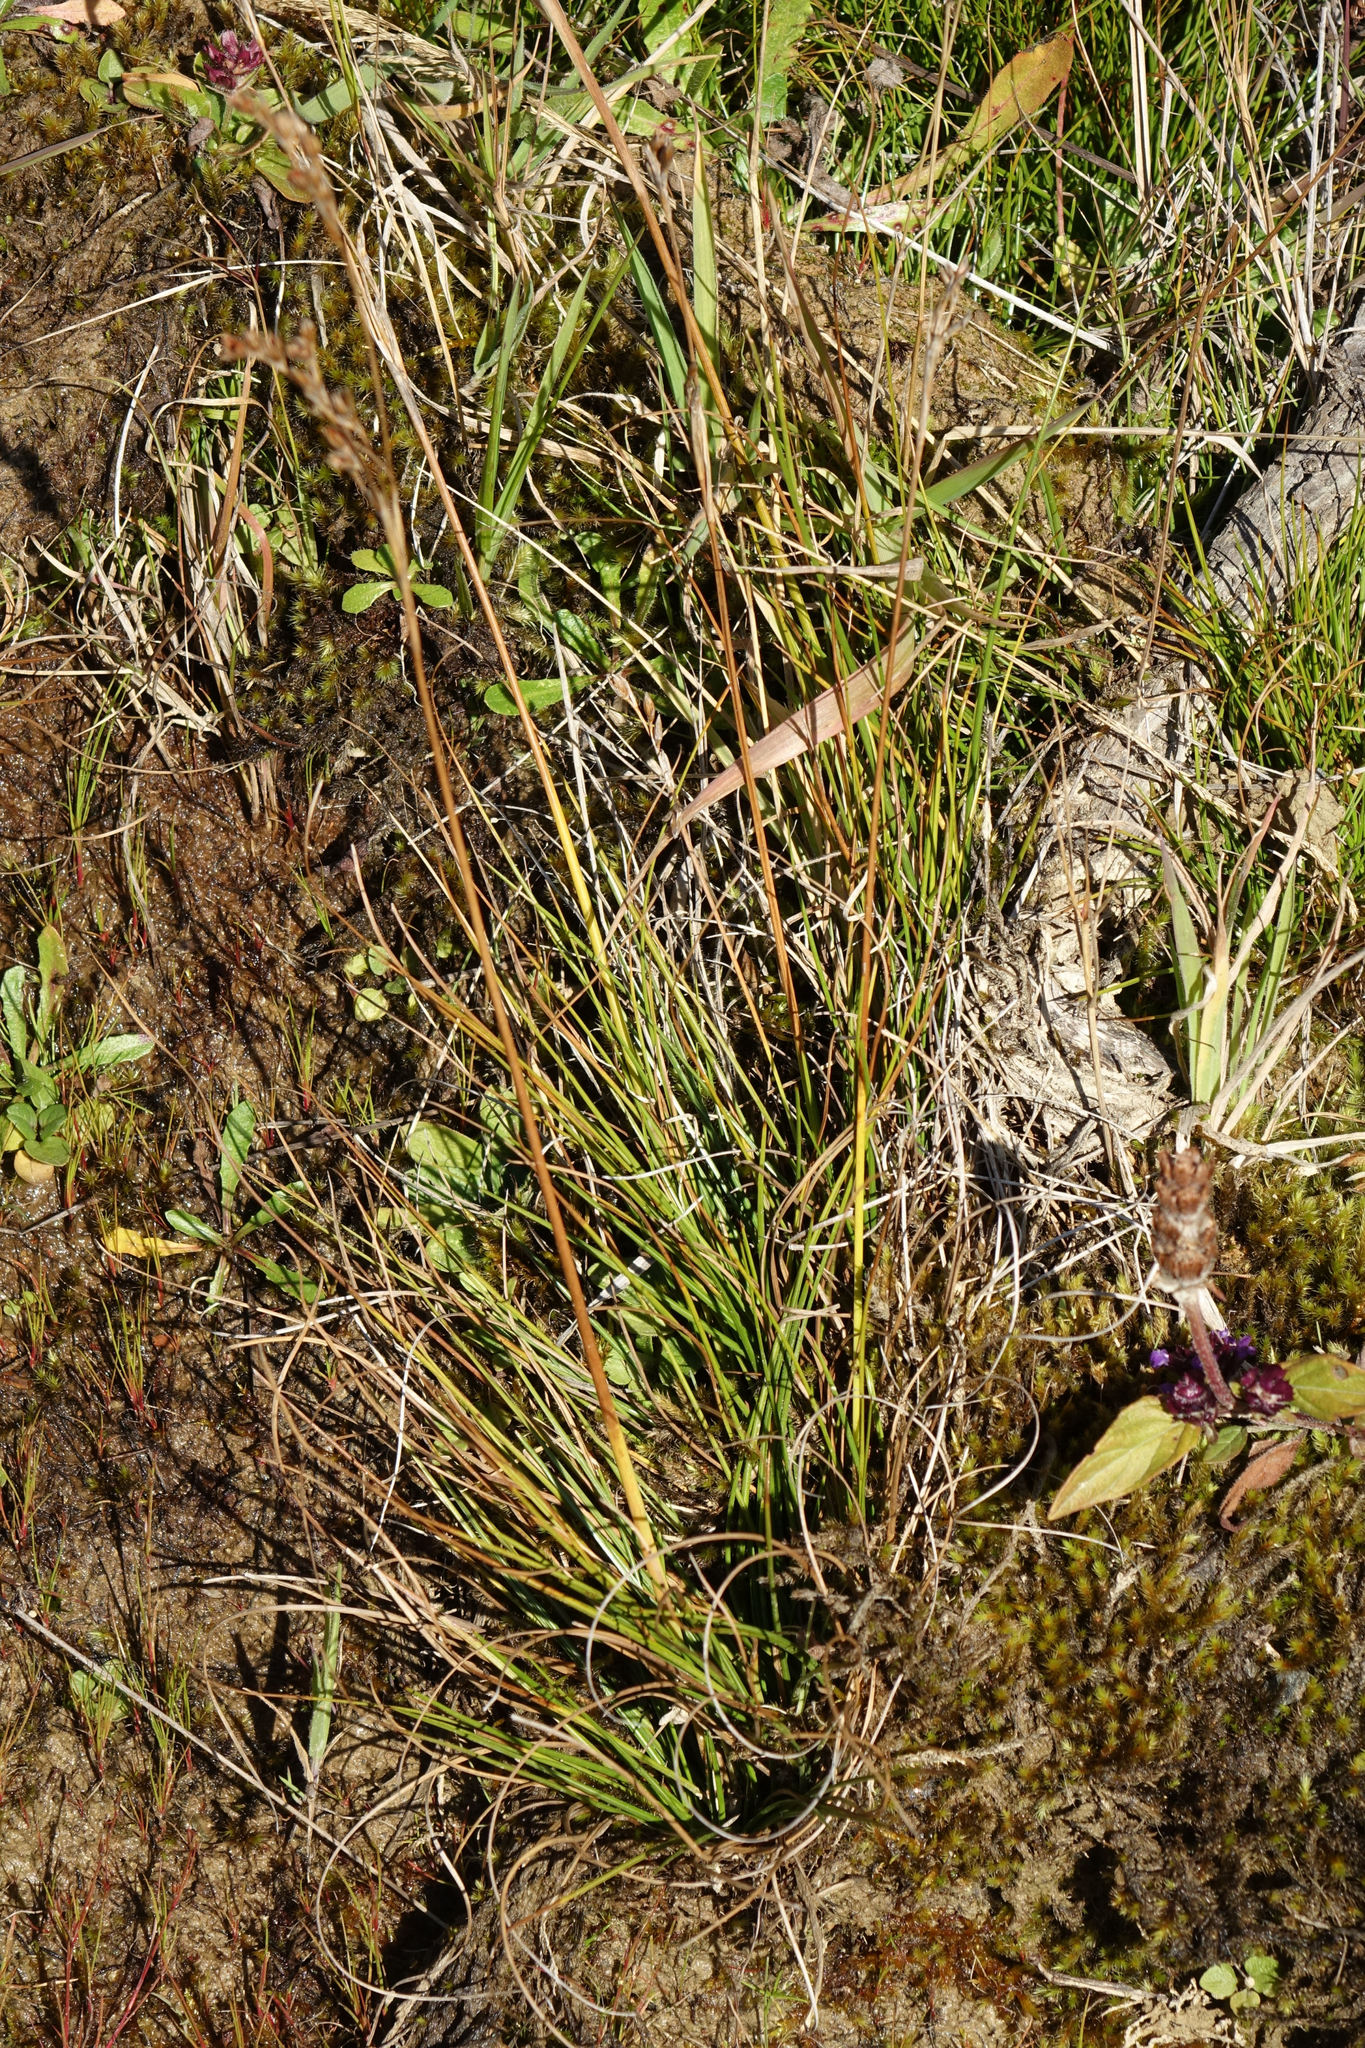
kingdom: Plantae
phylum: Tracheophyta
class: Liliopsida
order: Poales
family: Juncaceae
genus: Juncus
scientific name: Juncus squarrosus
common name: Heath rush
